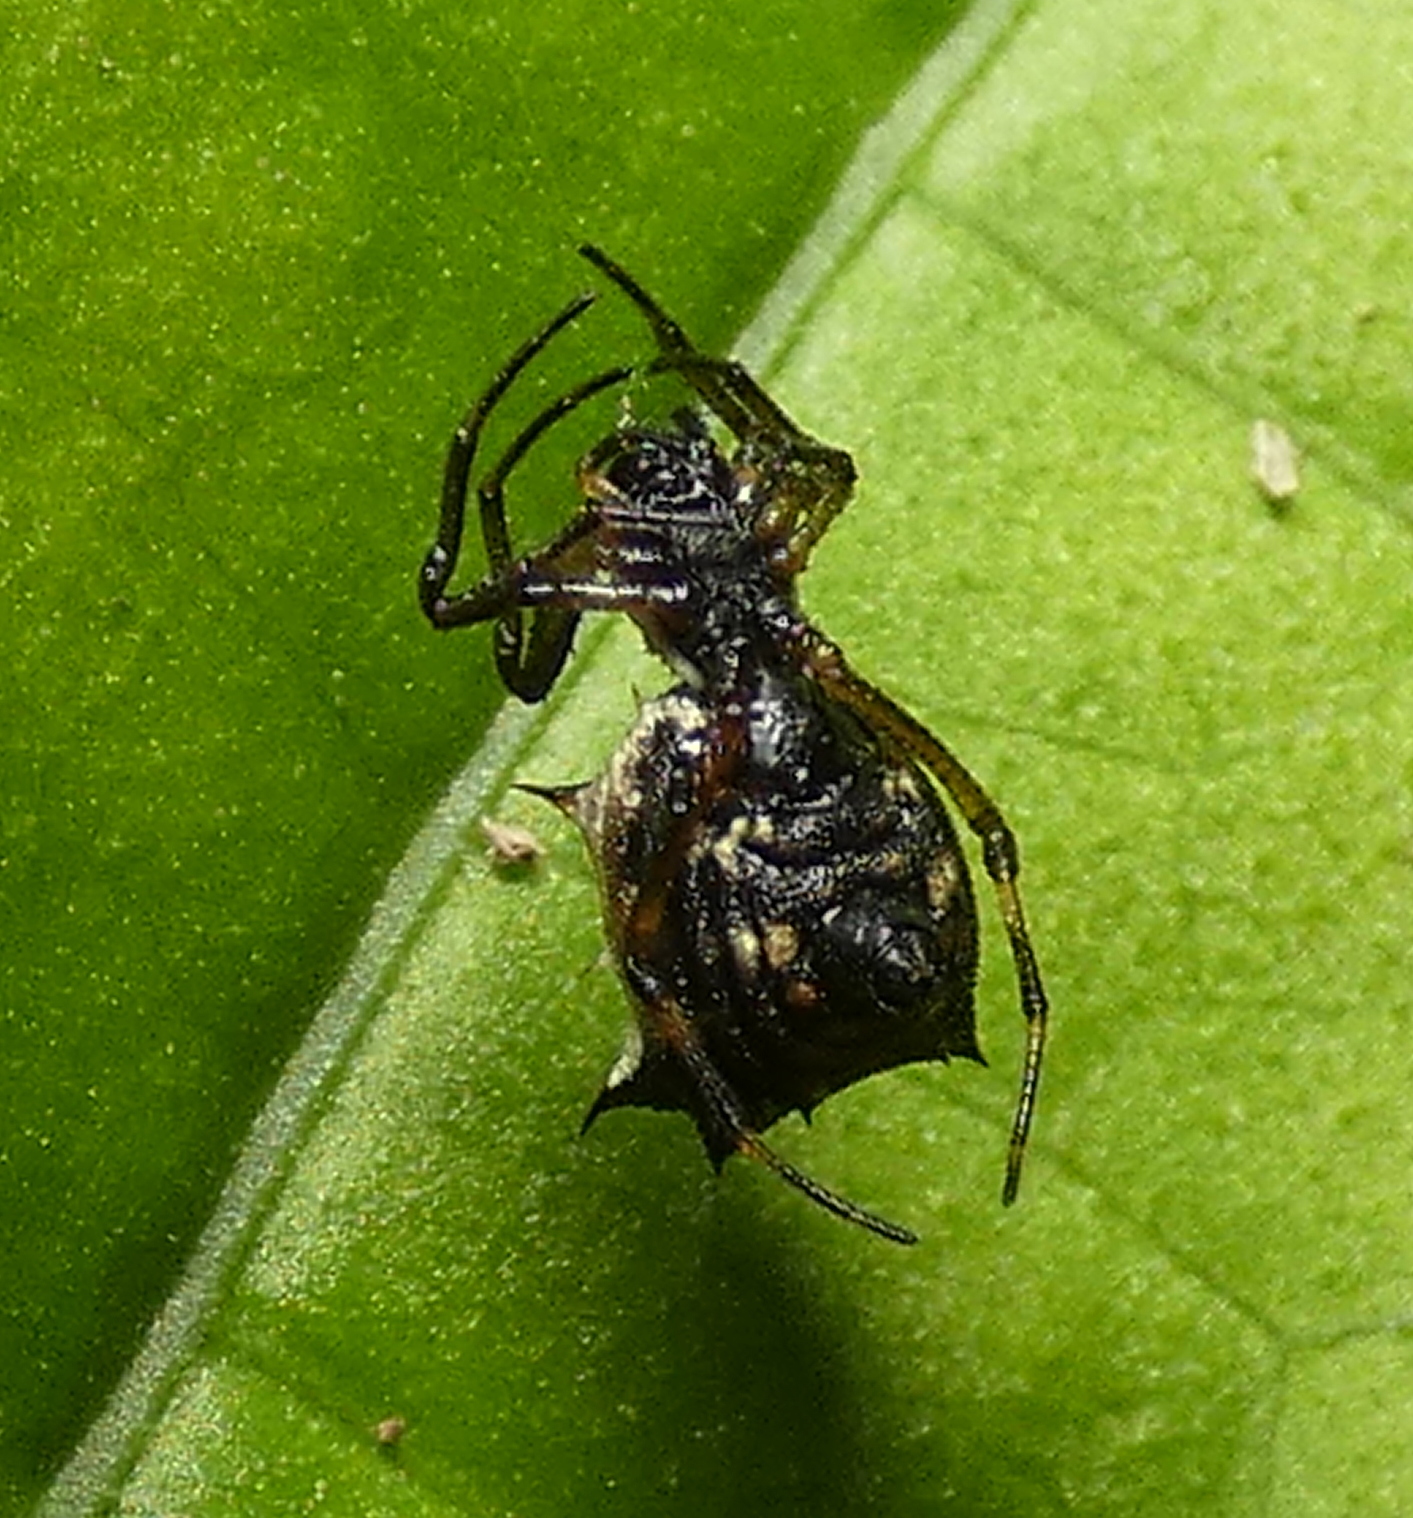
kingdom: Animalia
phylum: Arthropoda
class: Arachnida
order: Araneae
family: Araneidae
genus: Micrathena
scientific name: Micrathena picta
